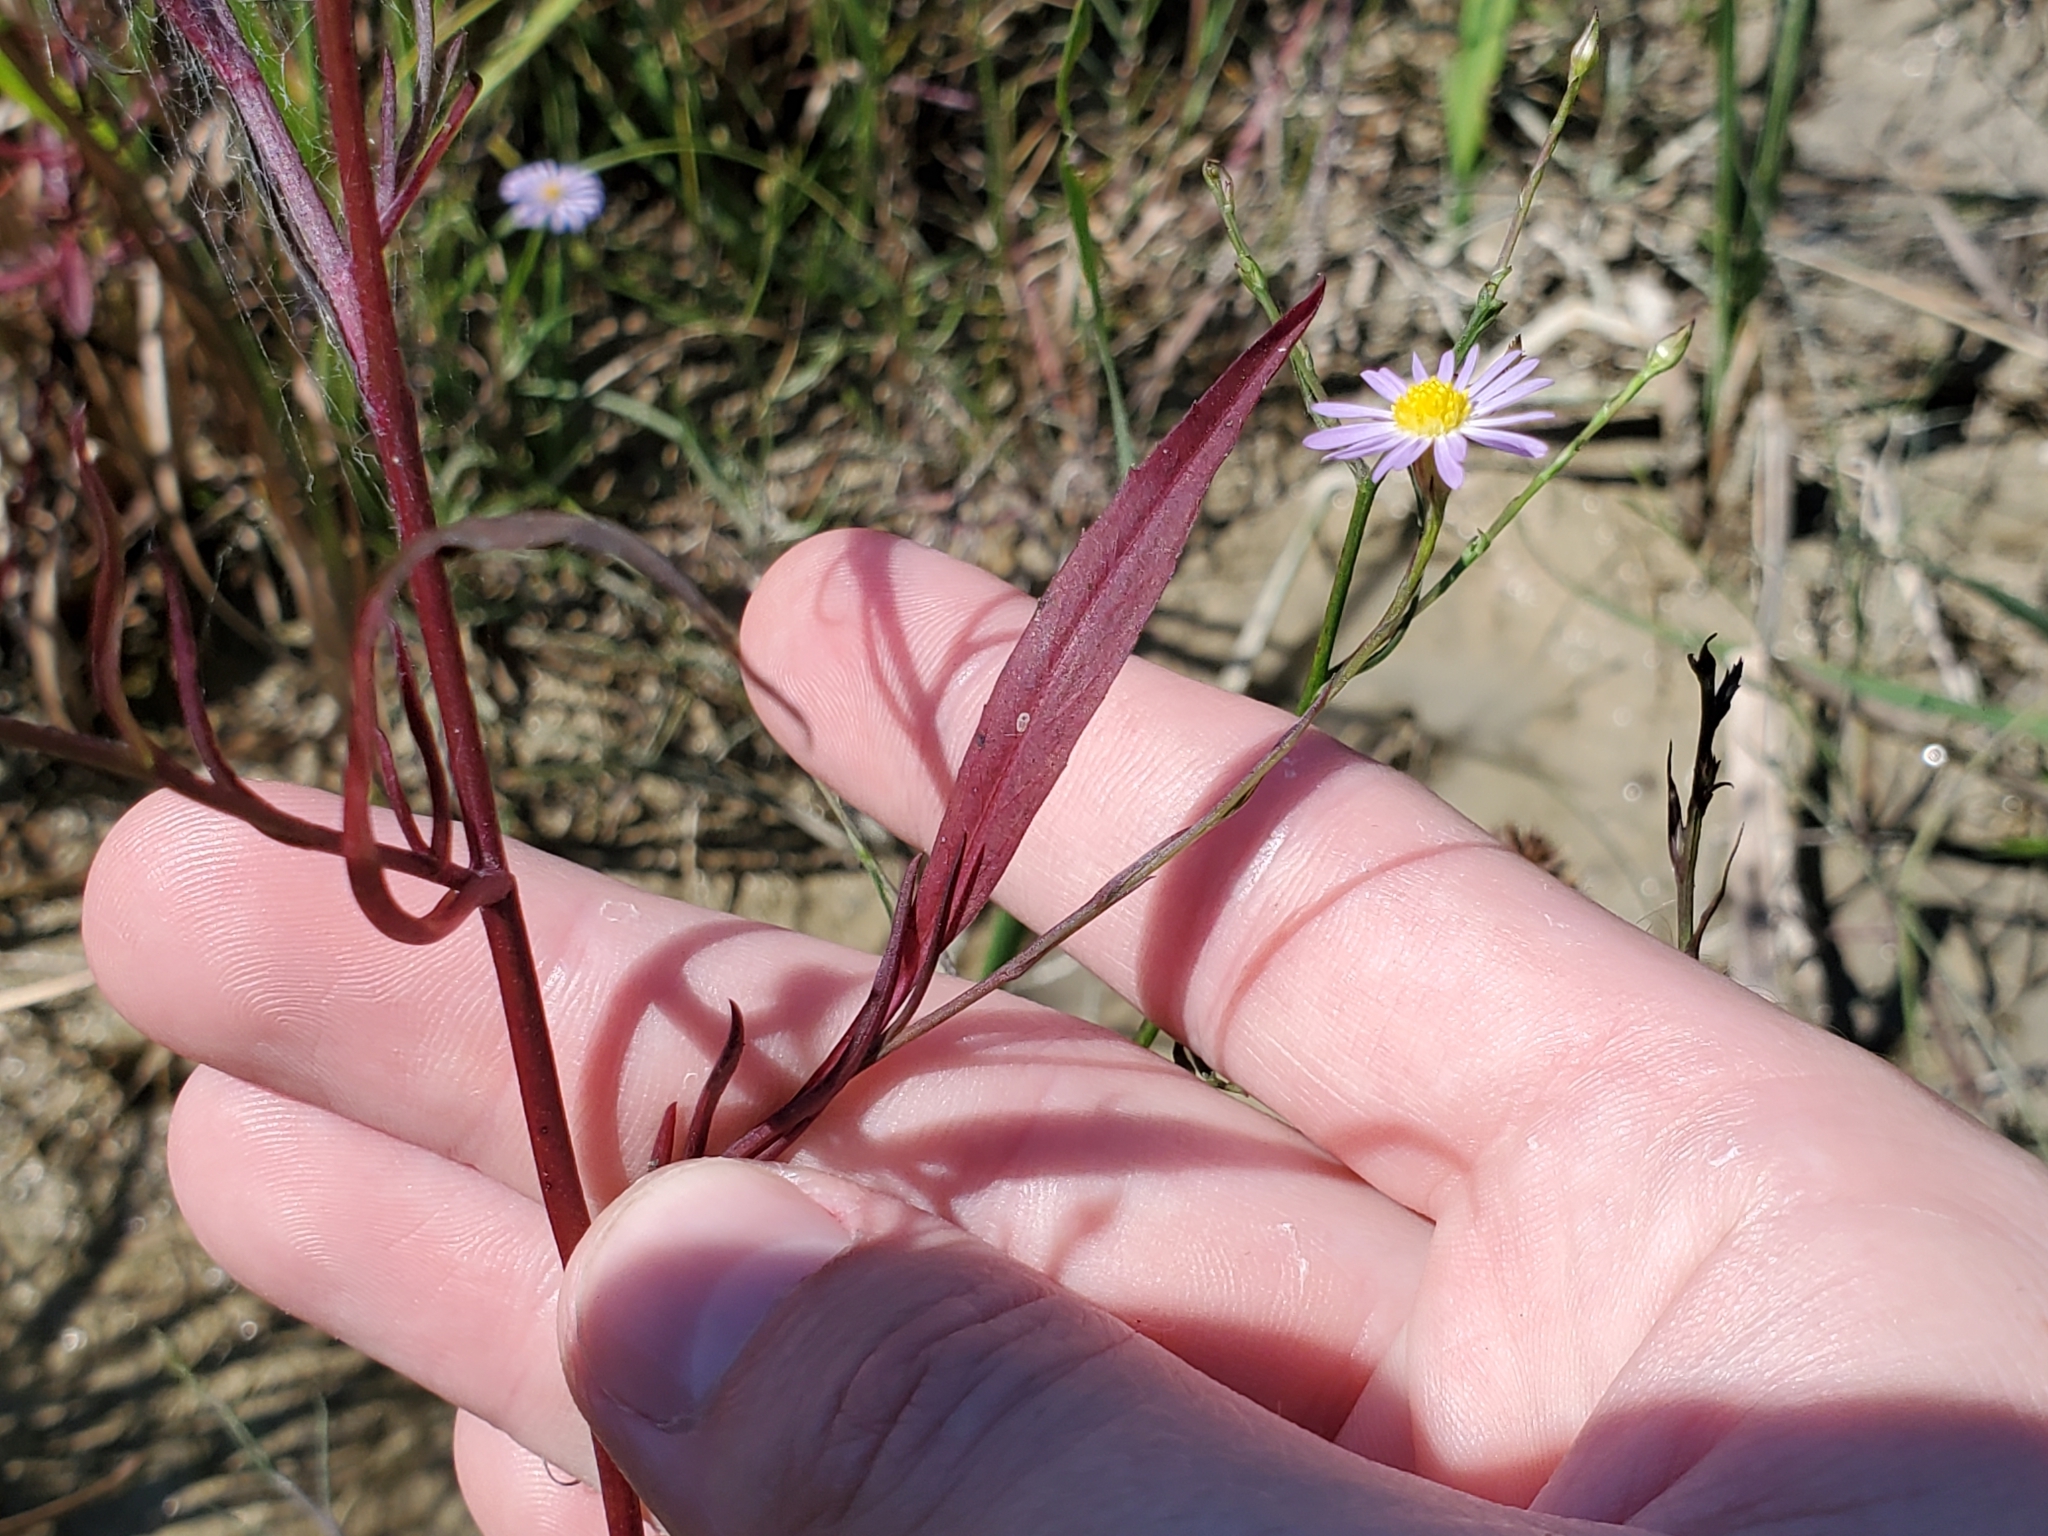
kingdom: Plantae
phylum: Tracheophyta
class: Magnoliopsida
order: Asterales
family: Asteraceae
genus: Symphyotrichum
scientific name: Symphyotrichum divaricatum
